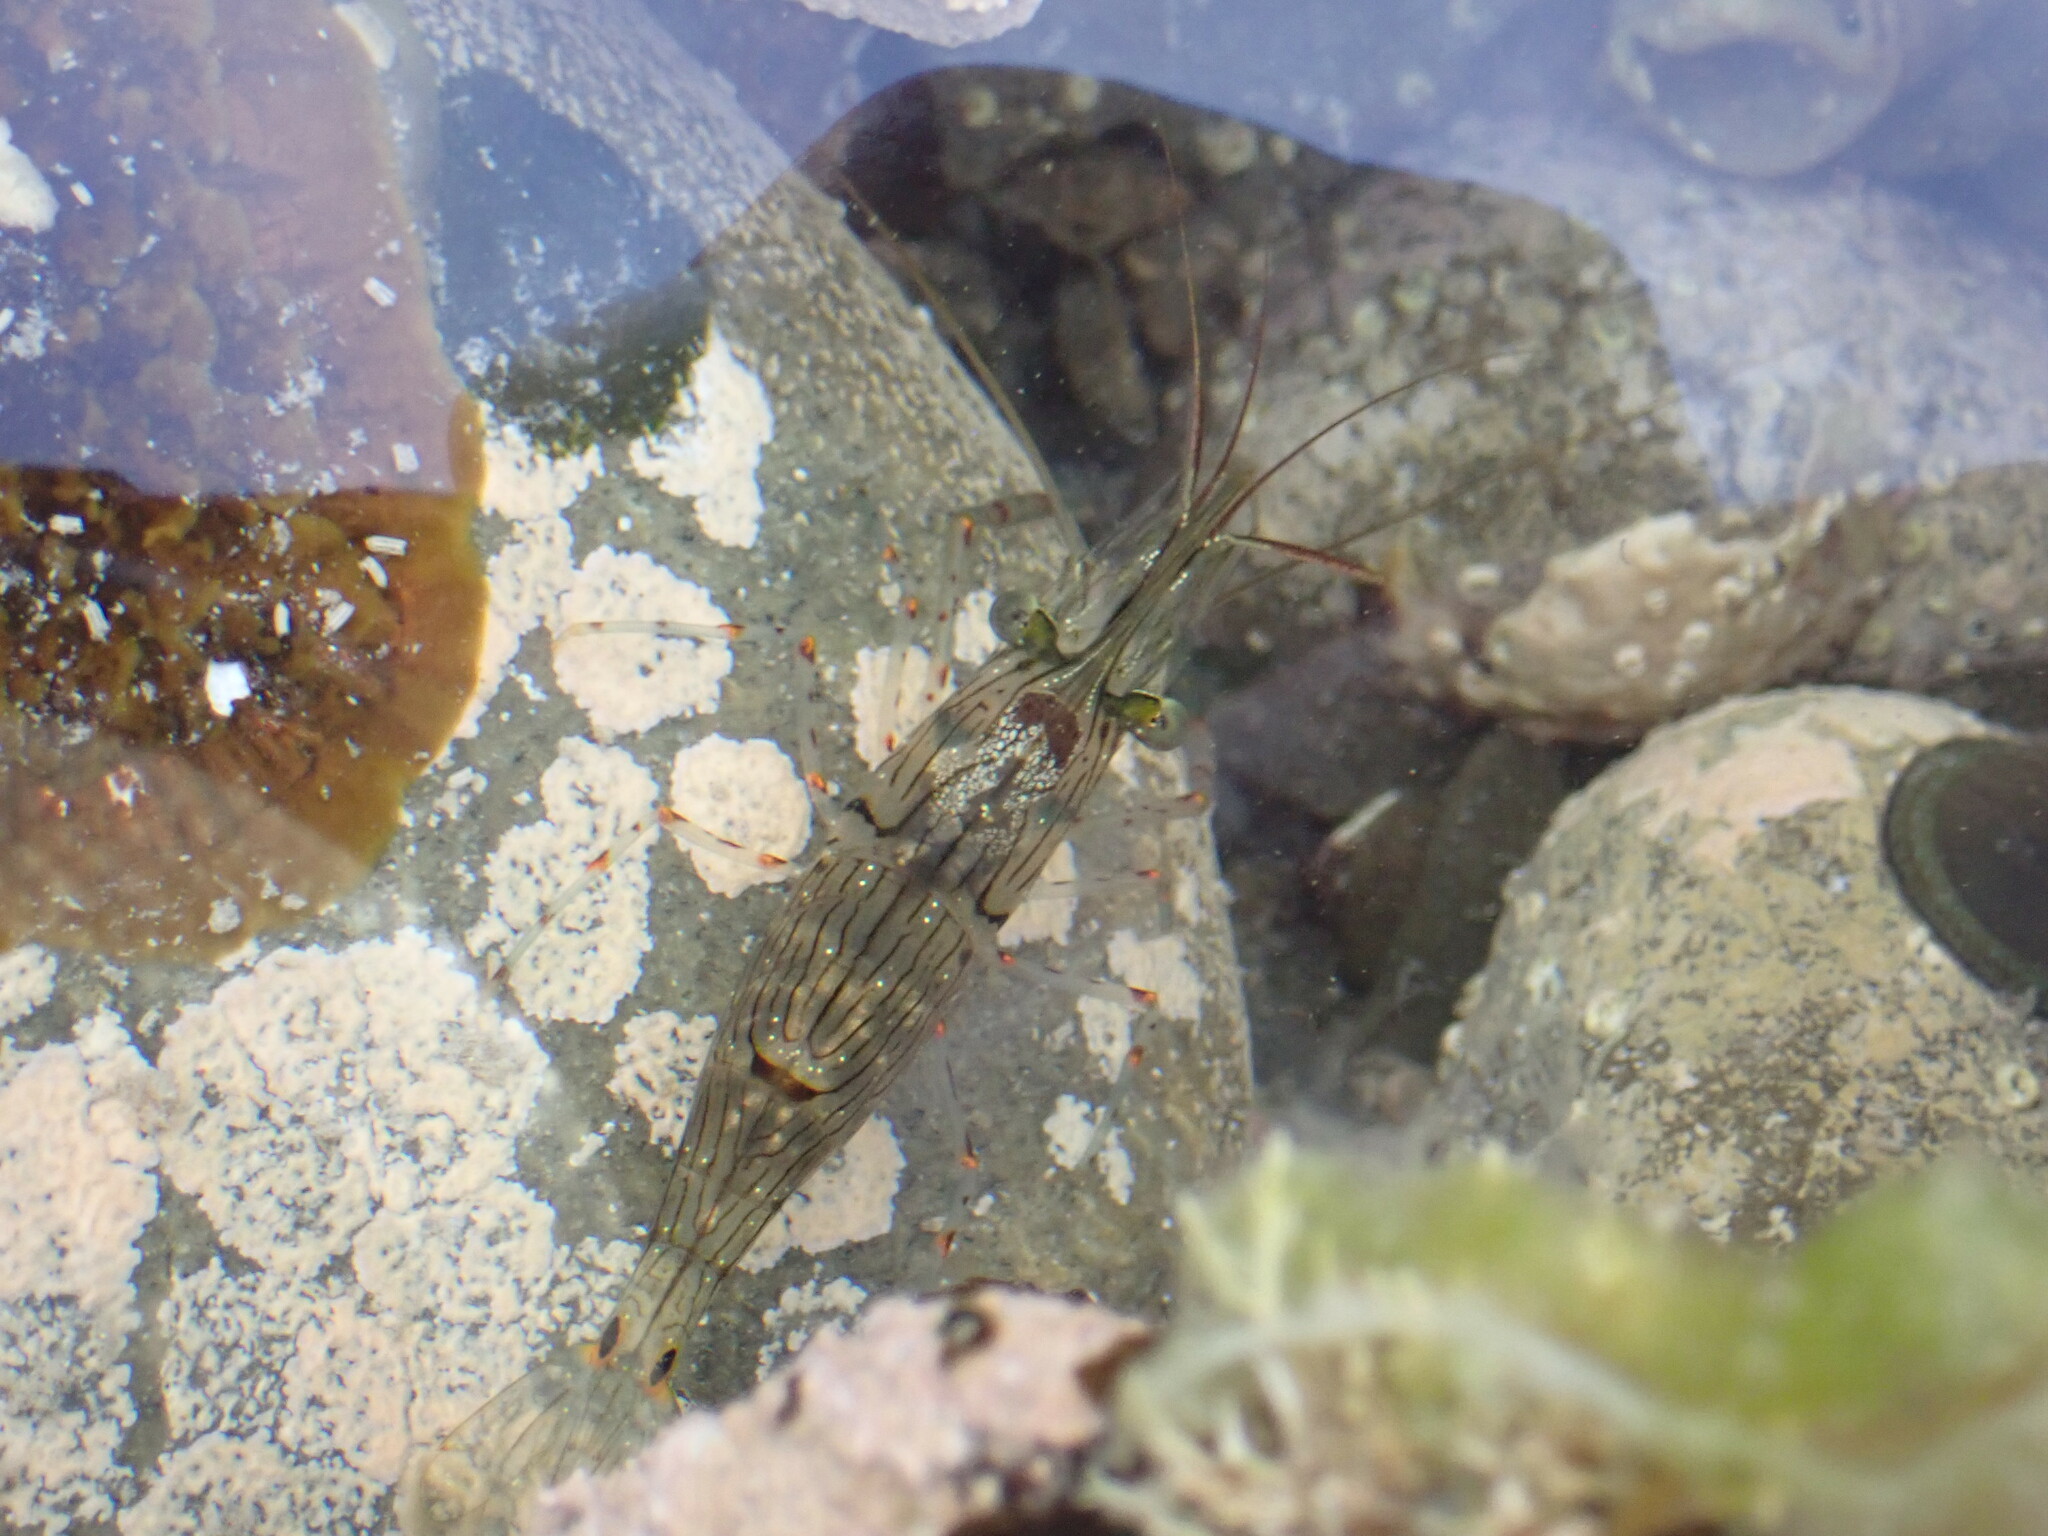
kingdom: Animalia
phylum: Arthropoda
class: Malacostraca
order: Decapoda
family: Palaemonidae
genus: Palaemon
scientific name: Palaemon affinis
